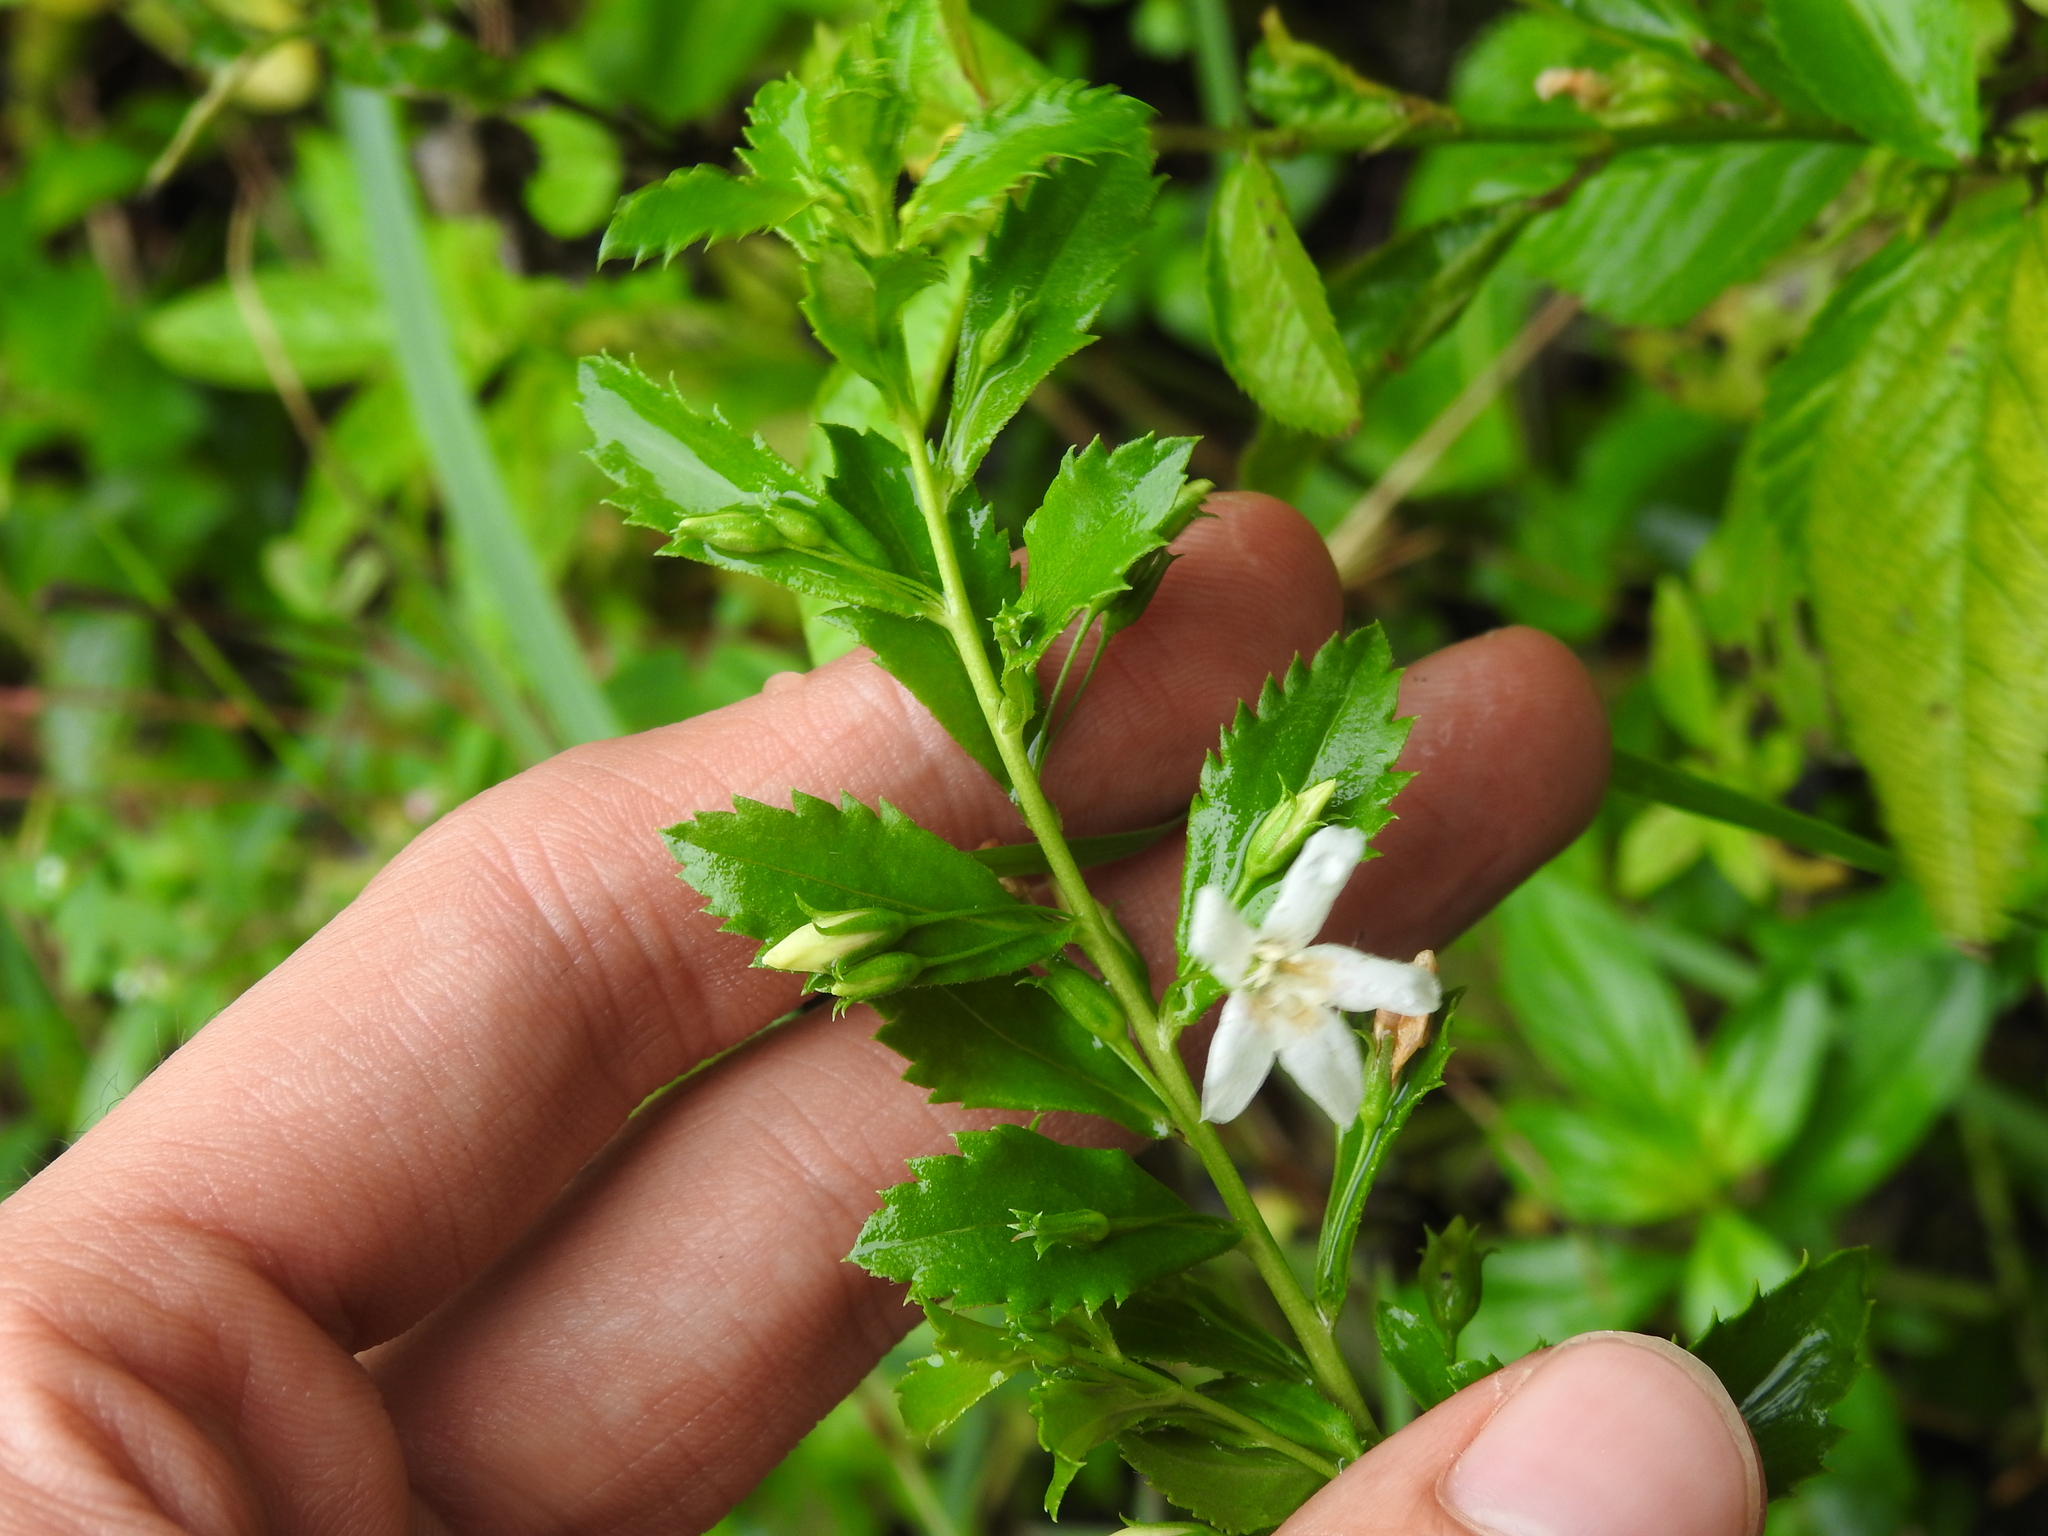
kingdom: Plantae
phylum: Tracheophyta
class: Magnoliopsida
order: Lamiales
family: Scrophulariaceae
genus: Capraria
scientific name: Capraria biflora
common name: Goatweed
